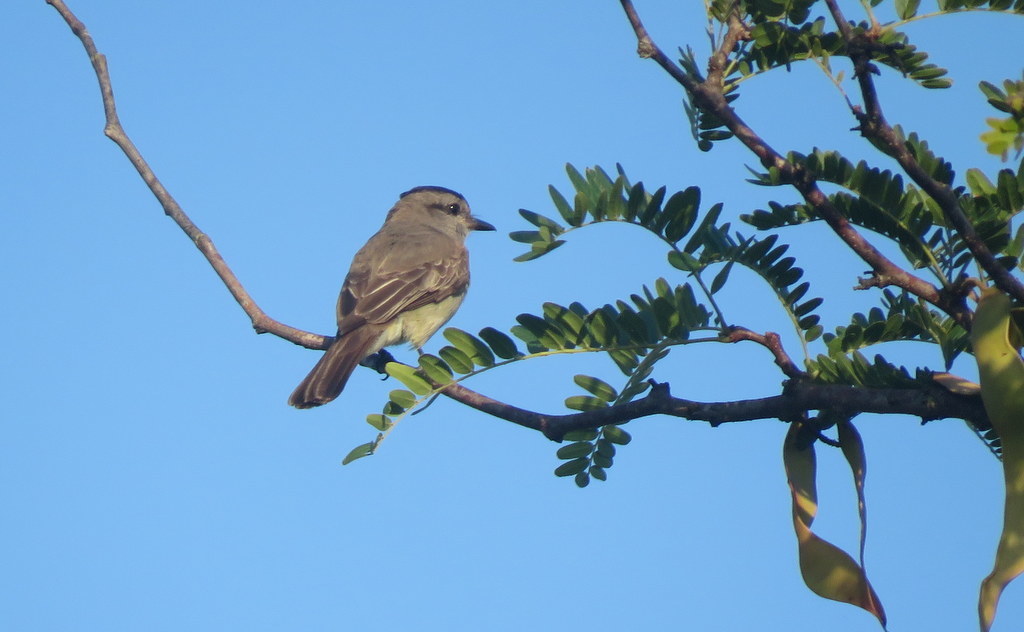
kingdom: Animalia
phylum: Chordata
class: Aves
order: Passeriformes
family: Tyrannidae
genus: Empidonomus
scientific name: Empidonomus aurantioatrocristatus
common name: Crowned slaty flycatcher
